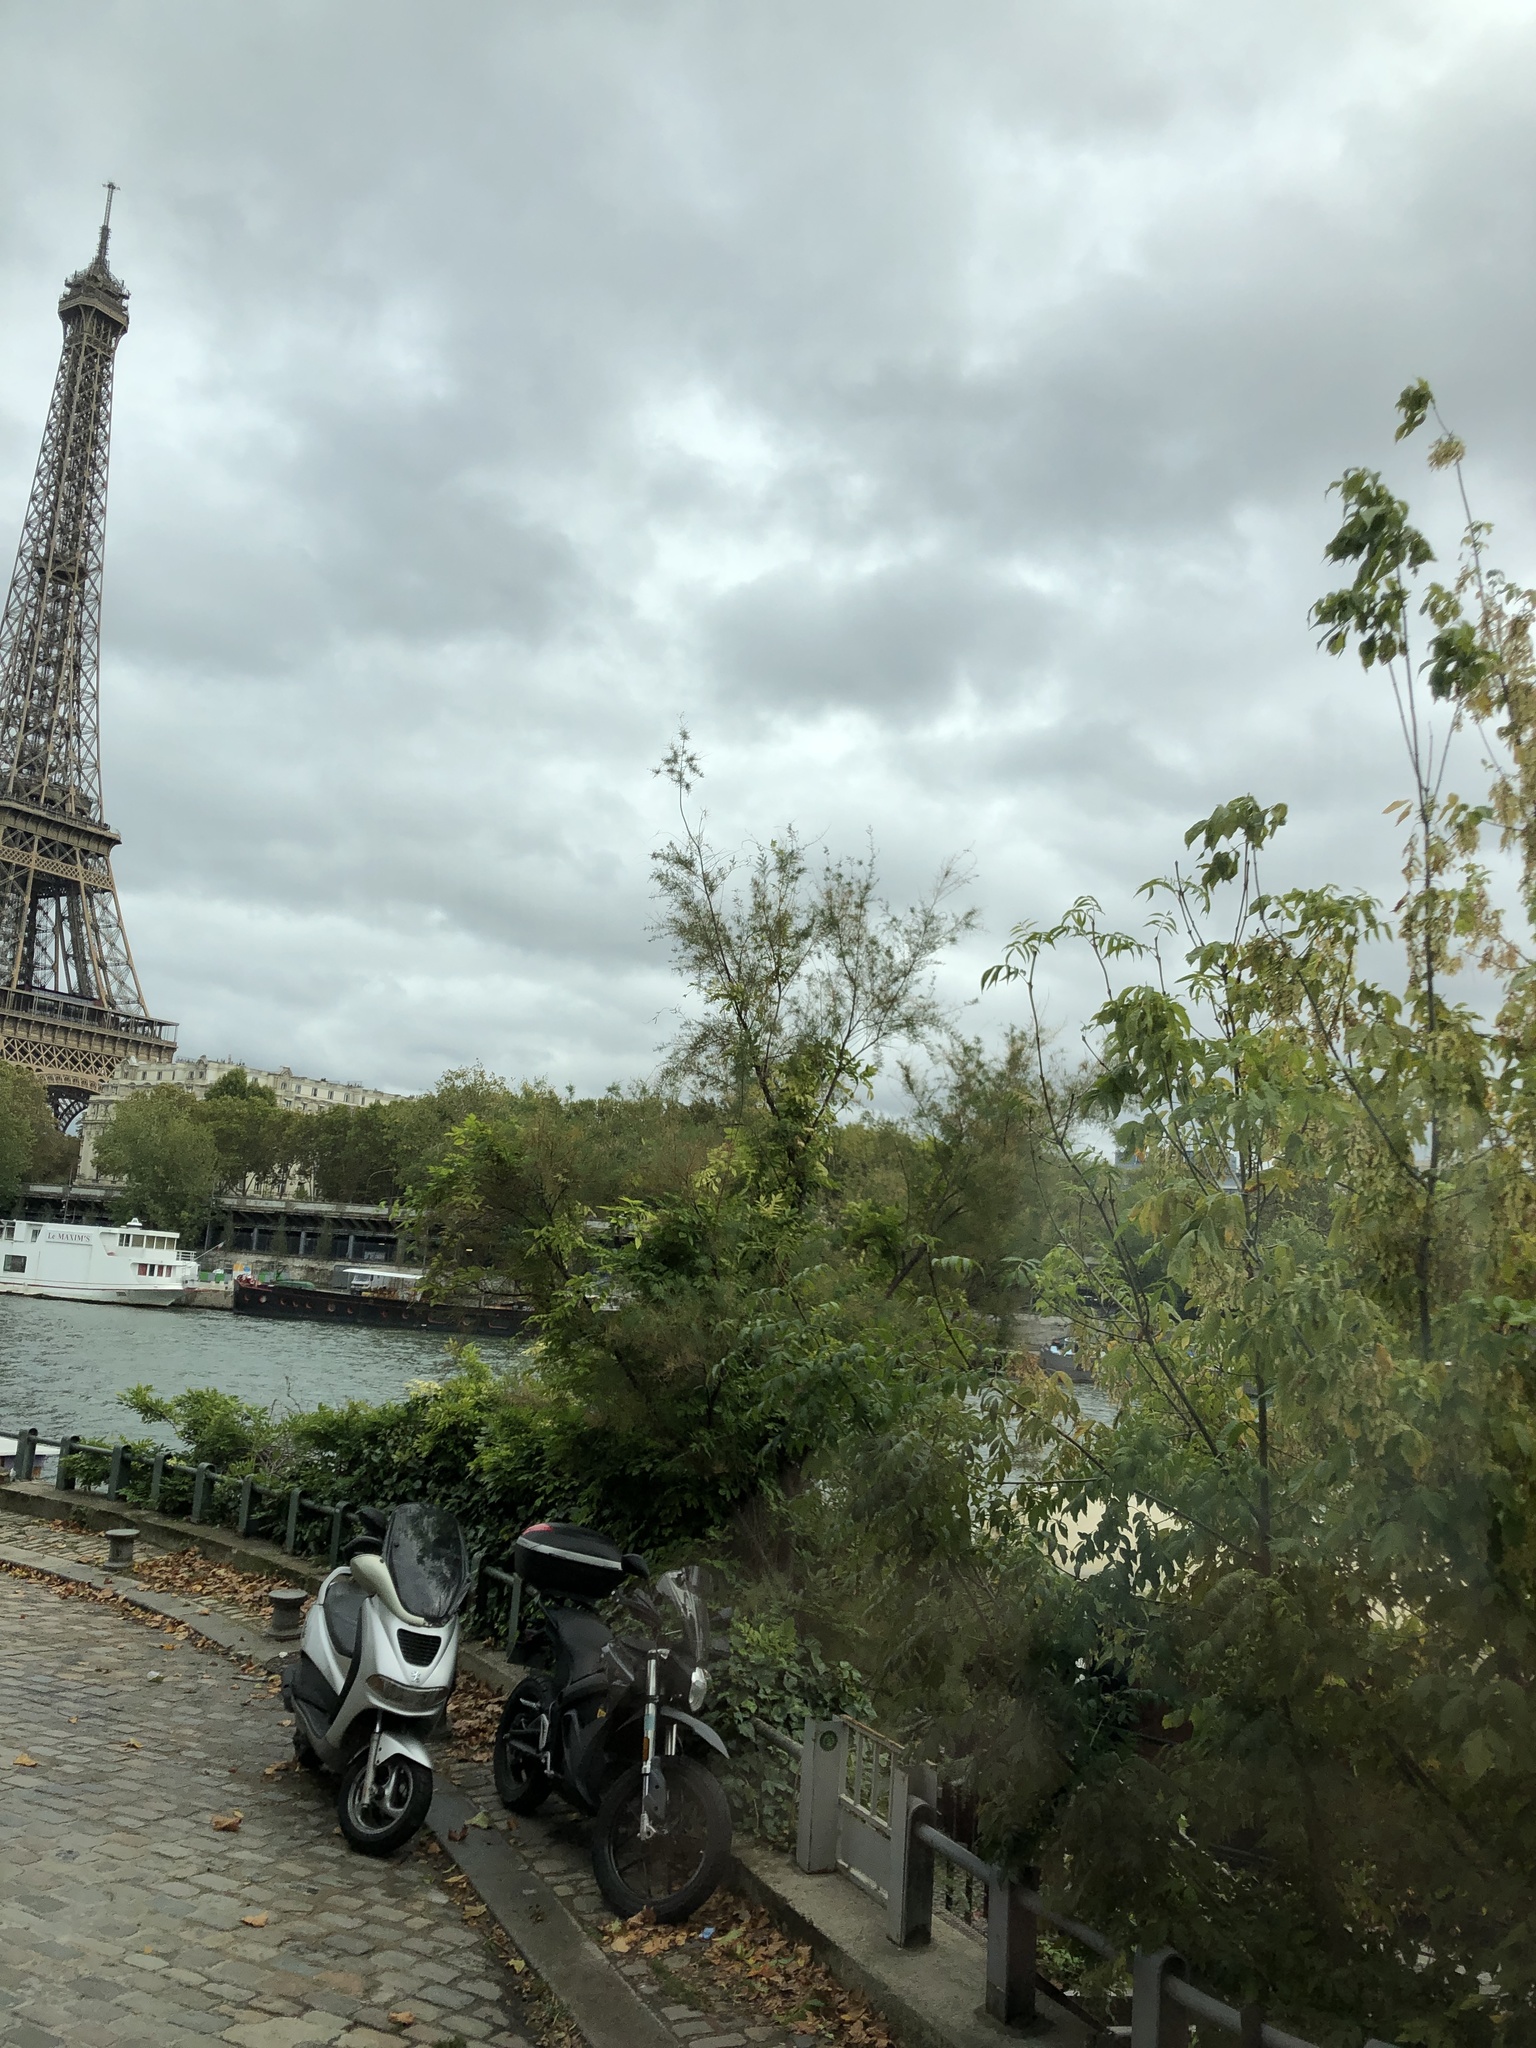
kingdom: Plantae
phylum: Tracheophyta
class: Magnoliopsida
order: Sapindales
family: Sapindaceae
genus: Acer
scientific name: Acer negundo
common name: Ashleaf maple
